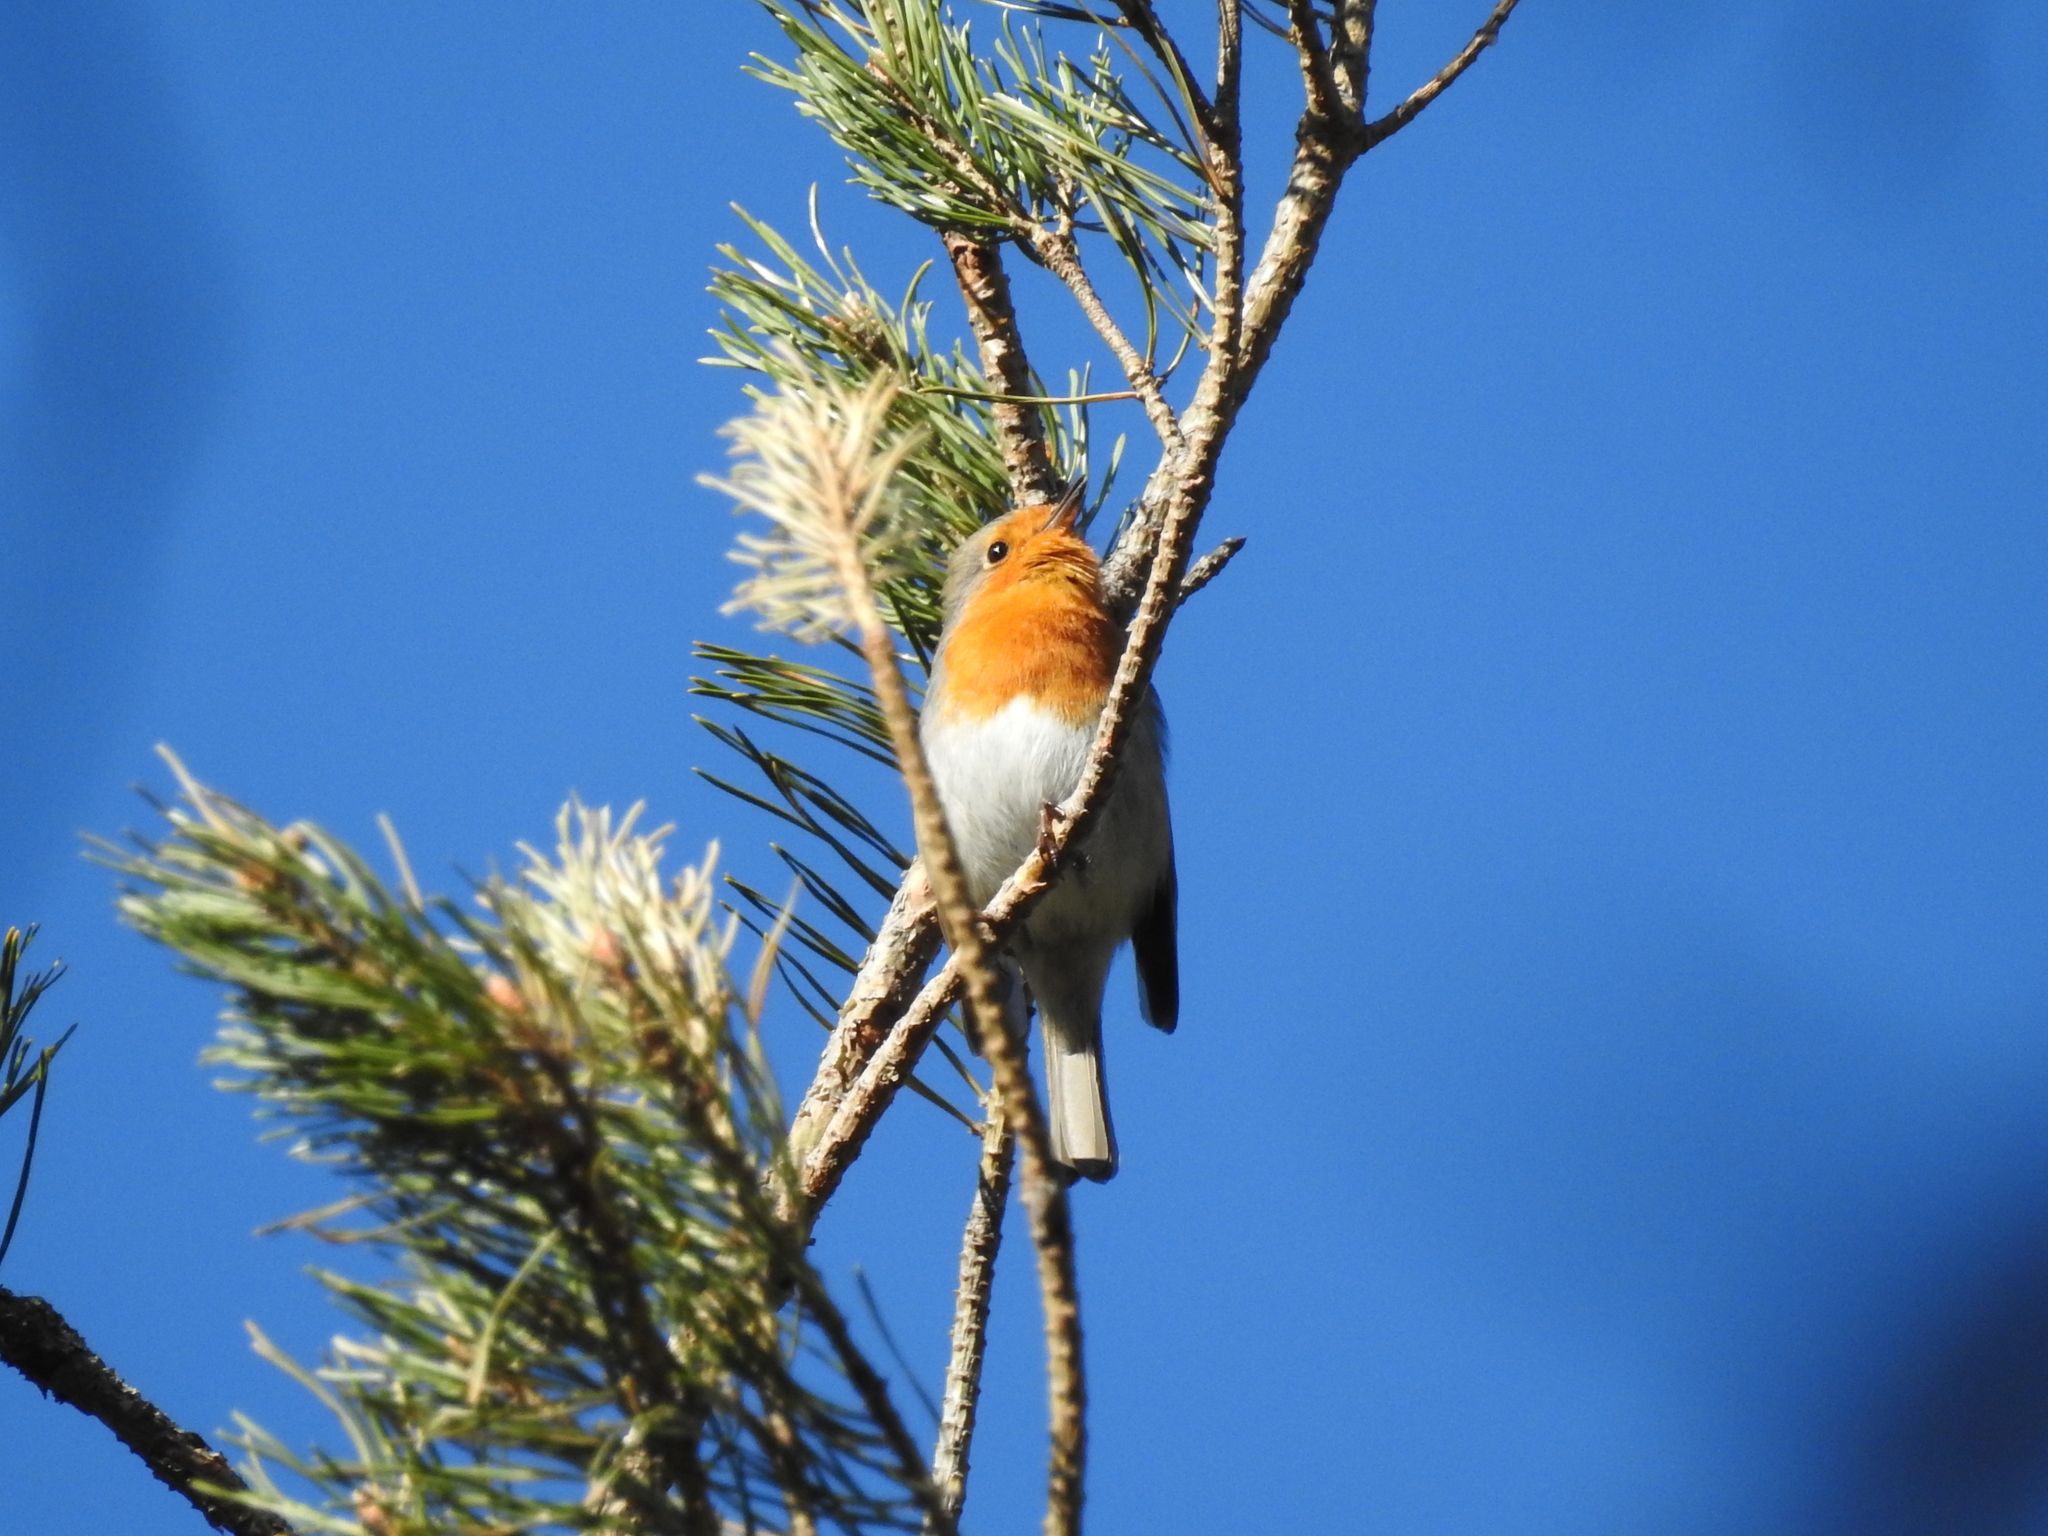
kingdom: Animalia
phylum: Chordata
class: Aves
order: Passeriformes
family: Muscicapidae
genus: Erithacus
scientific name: Erithacus rubecula
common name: European robin
